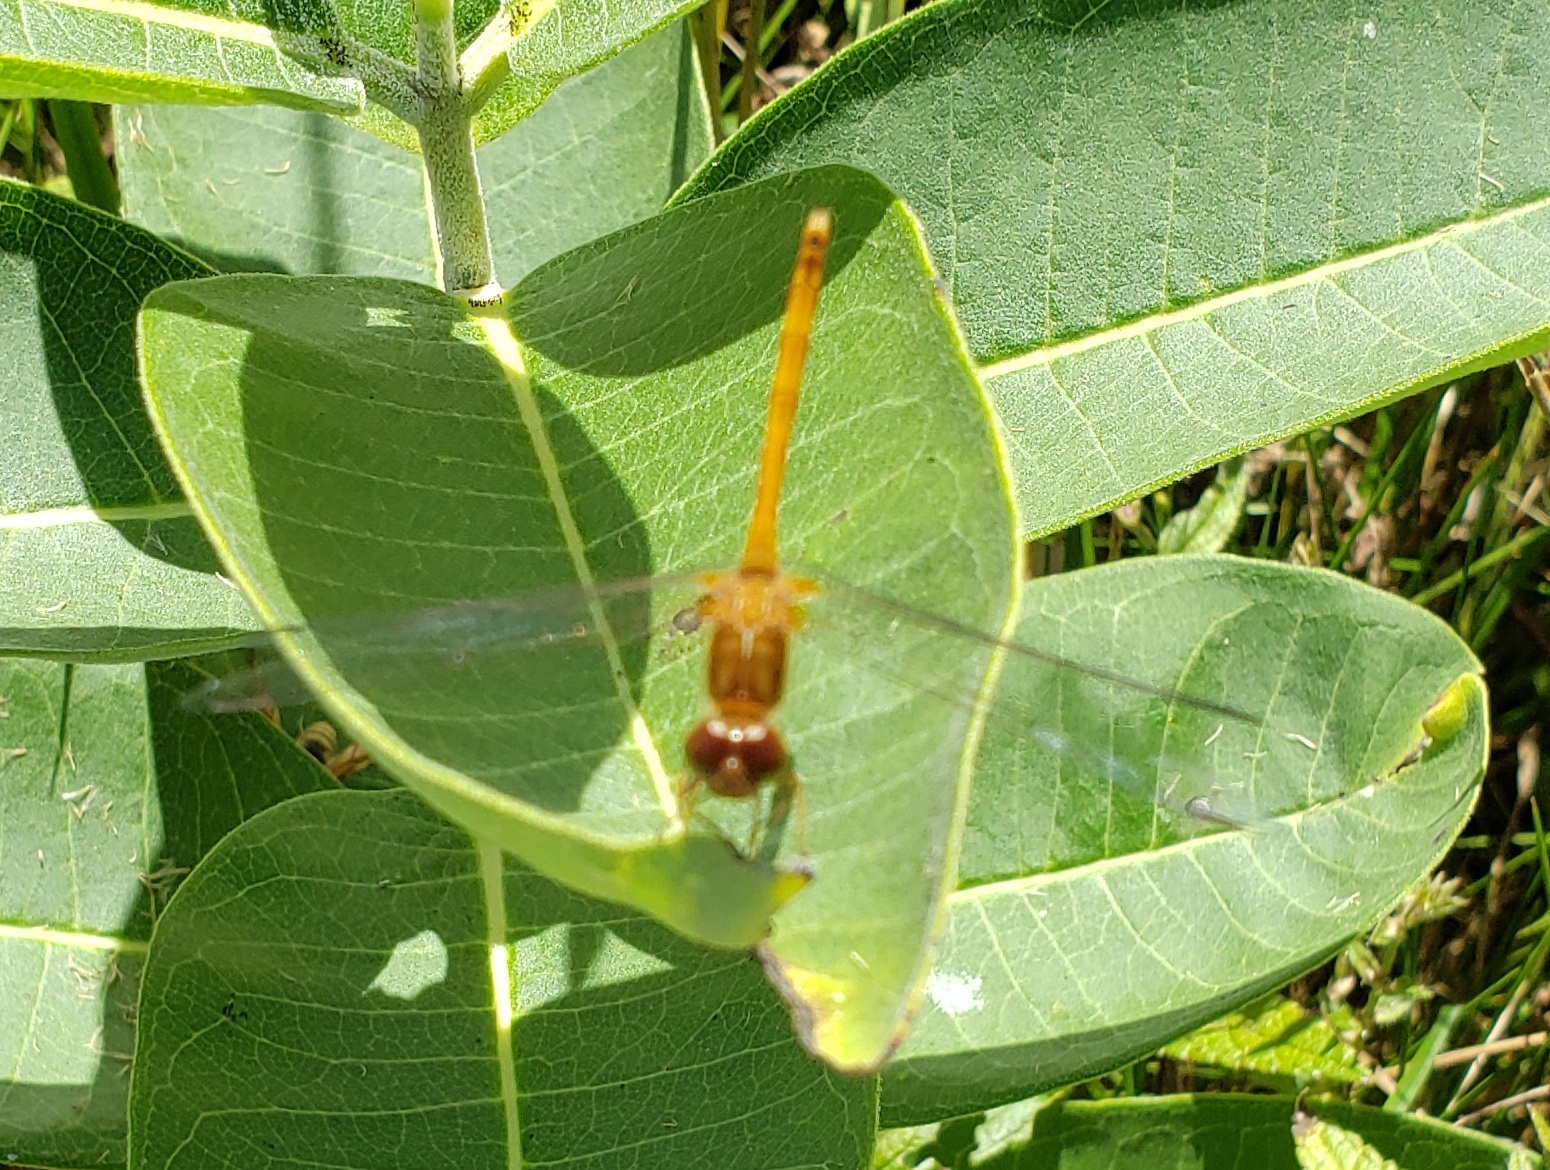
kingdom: Animalia
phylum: Arthropoda
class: Insecta
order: Odonata
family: Libellulidae
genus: Sympetrum
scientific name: Sympetrum vicinum
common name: Autumn meadowhawk
